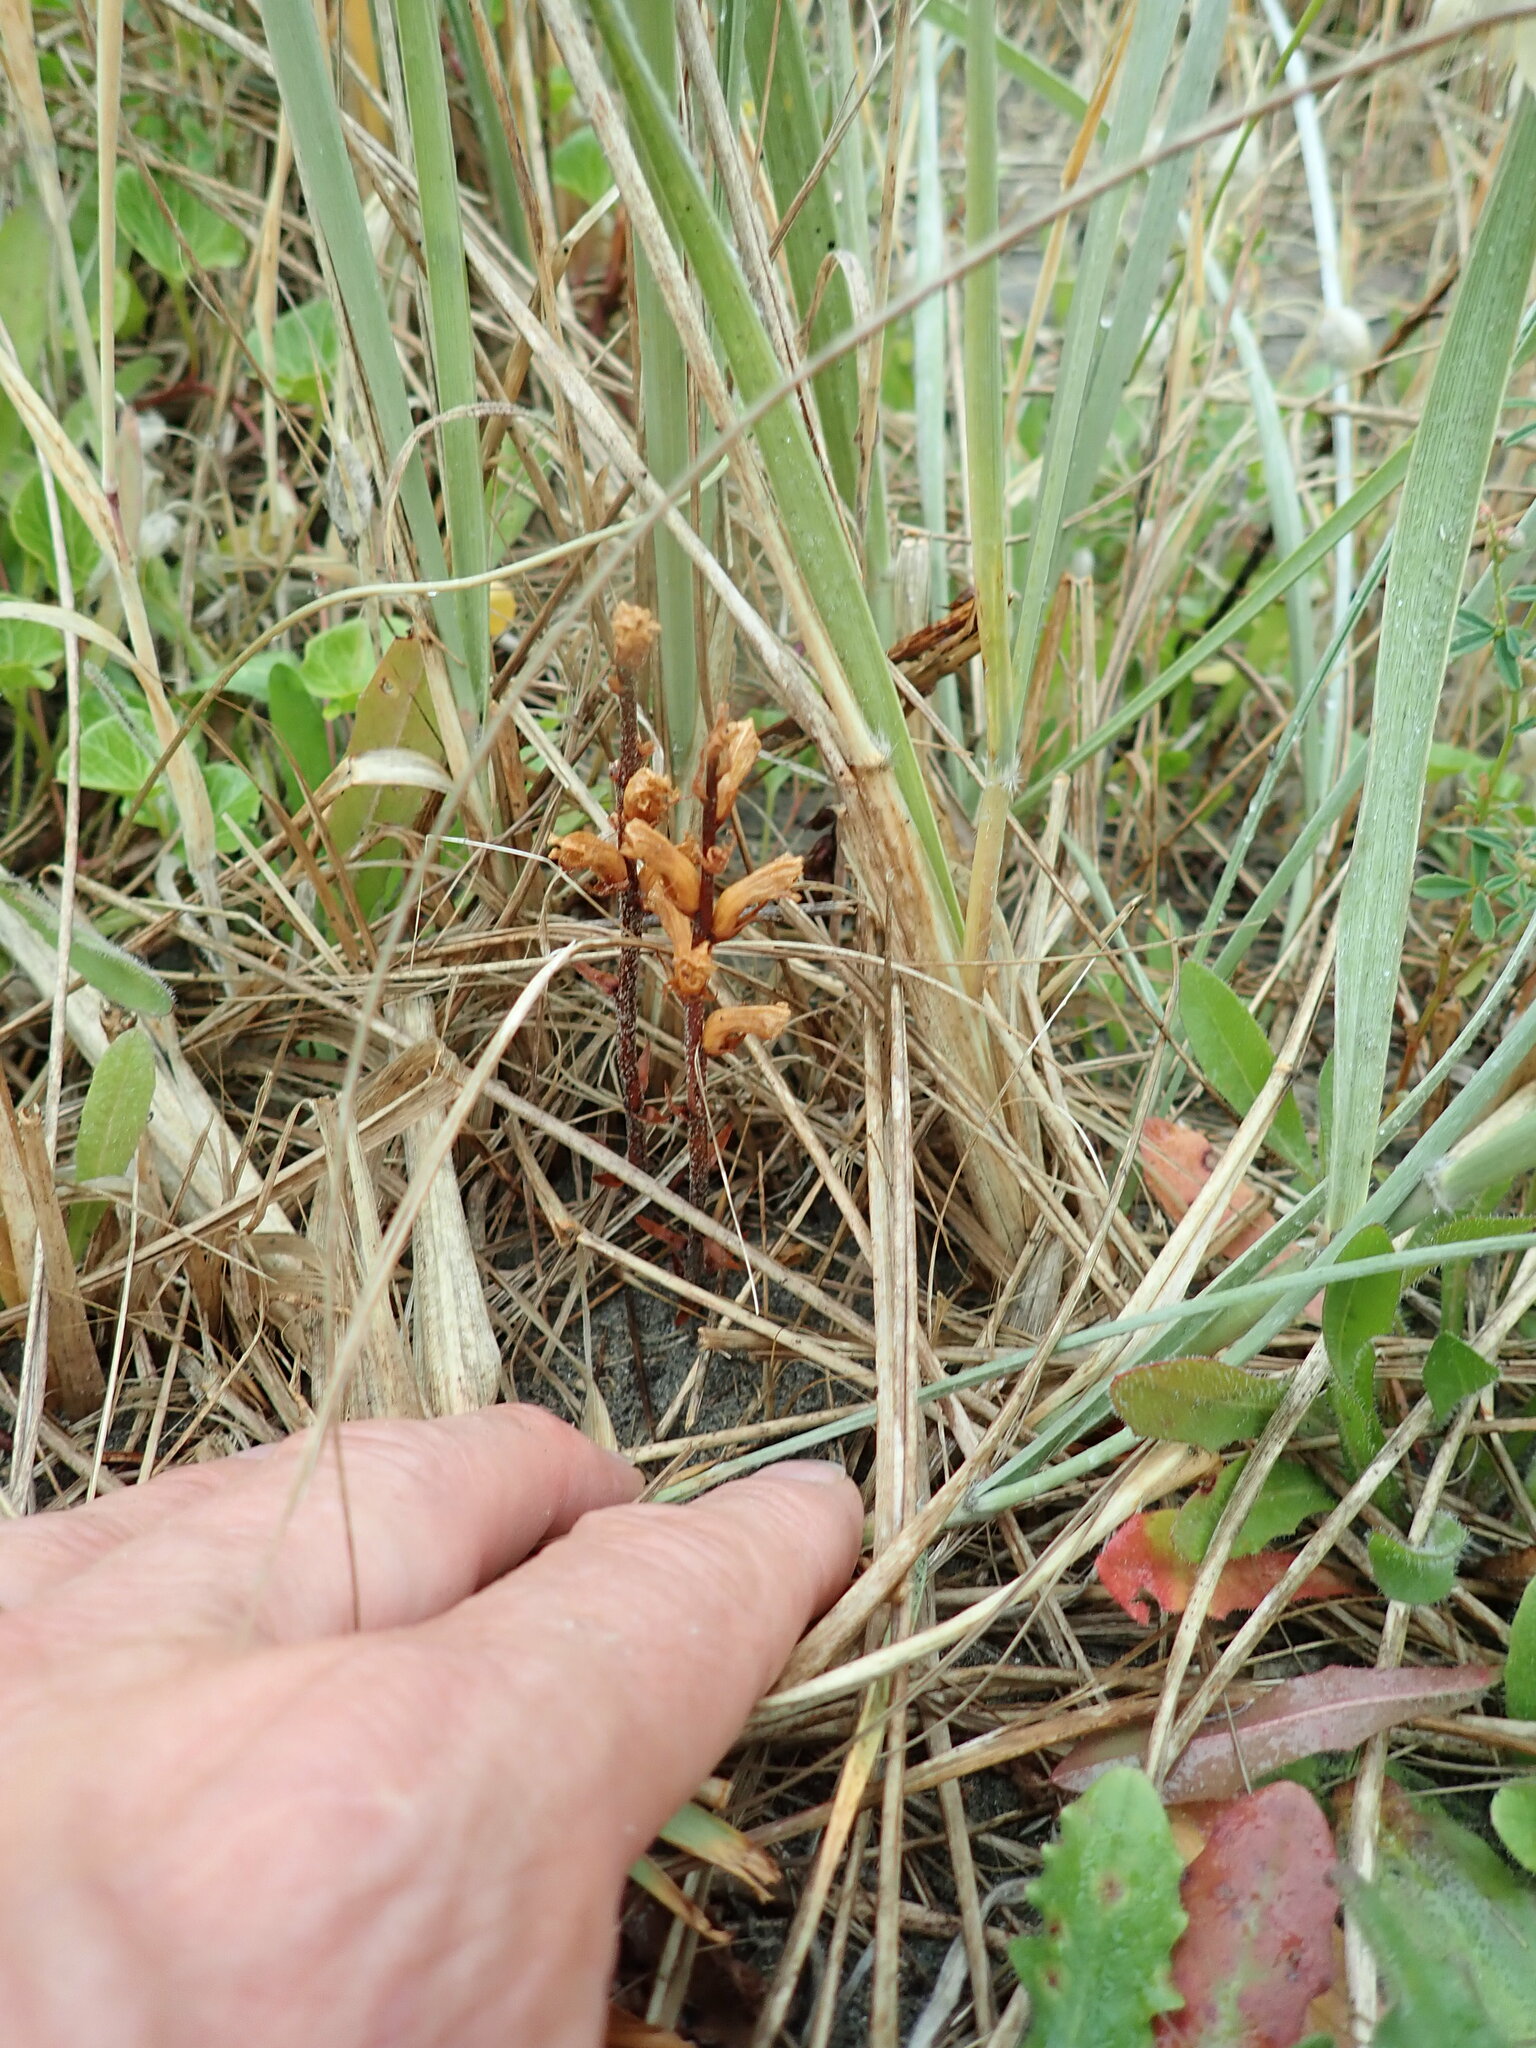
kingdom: Plantae
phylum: Tracheophyta
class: Magnoliopsida
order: Lamiales
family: Orobanchaceae
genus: Orobanche
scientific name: Orobanche minor
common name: Common broomrape
